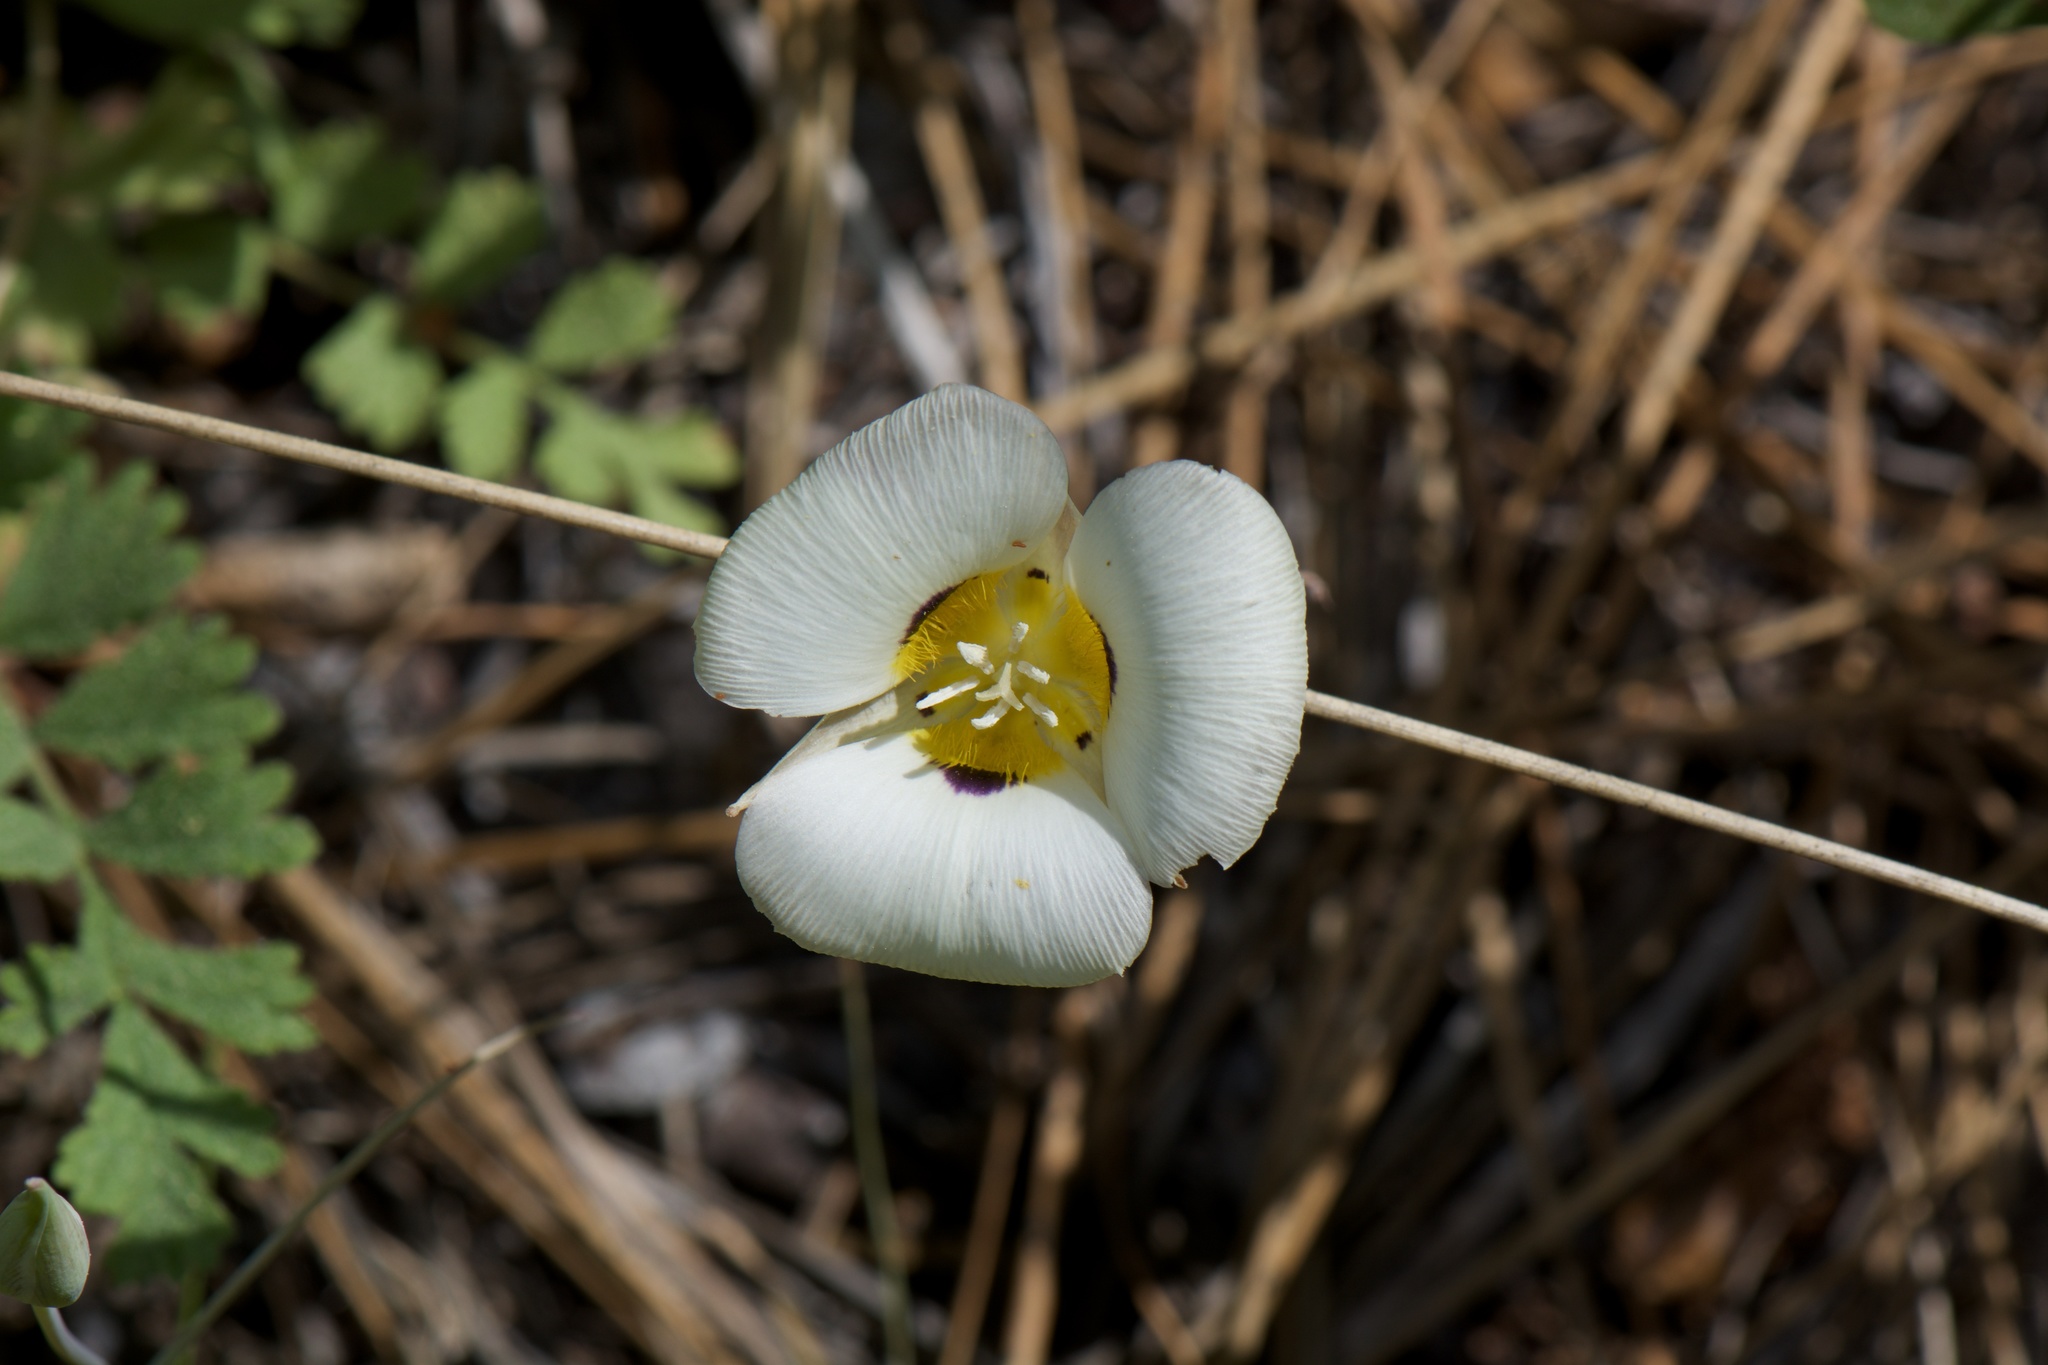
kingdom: Plantae
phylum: Tracheophyta
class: Liliopsida
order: Liliales
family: Liliaceae
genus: Calochortus
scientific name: Calochortus leichtlinii
